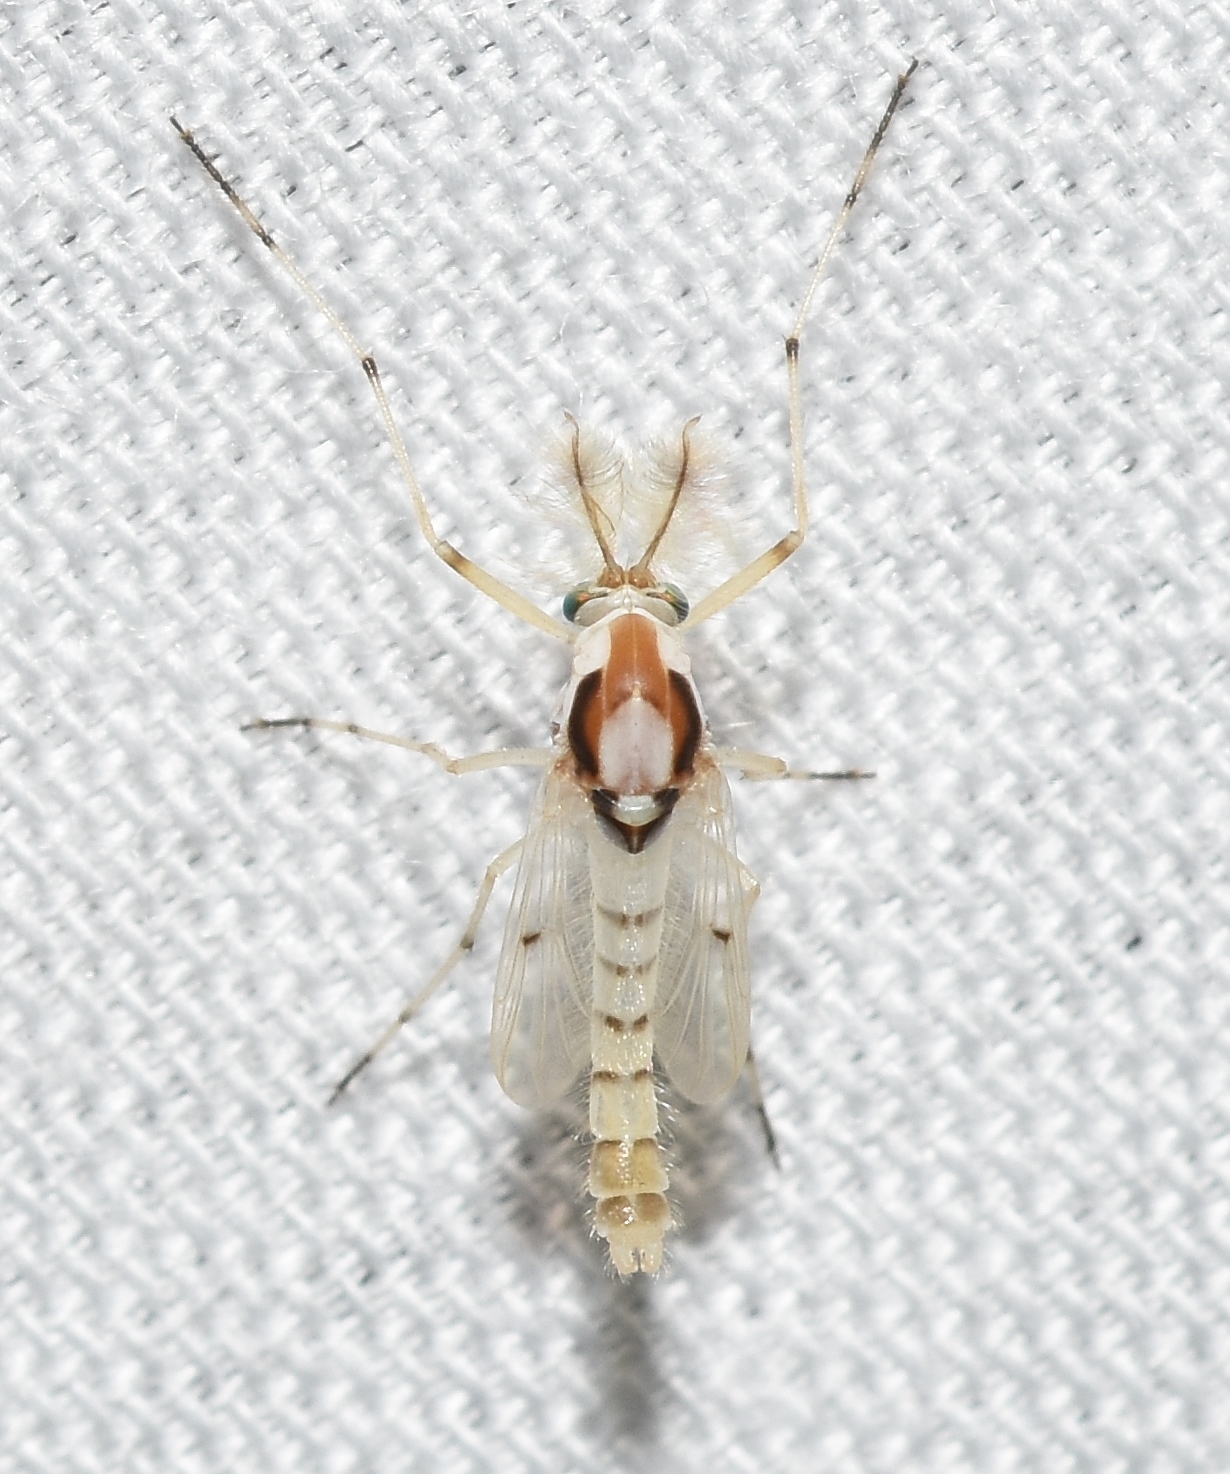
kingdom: Animalia
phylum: Arthropoda
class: Insecta
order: Diptera
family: Chironomidae
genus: Coelotanypus
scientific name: Coelotanypus concinnus
